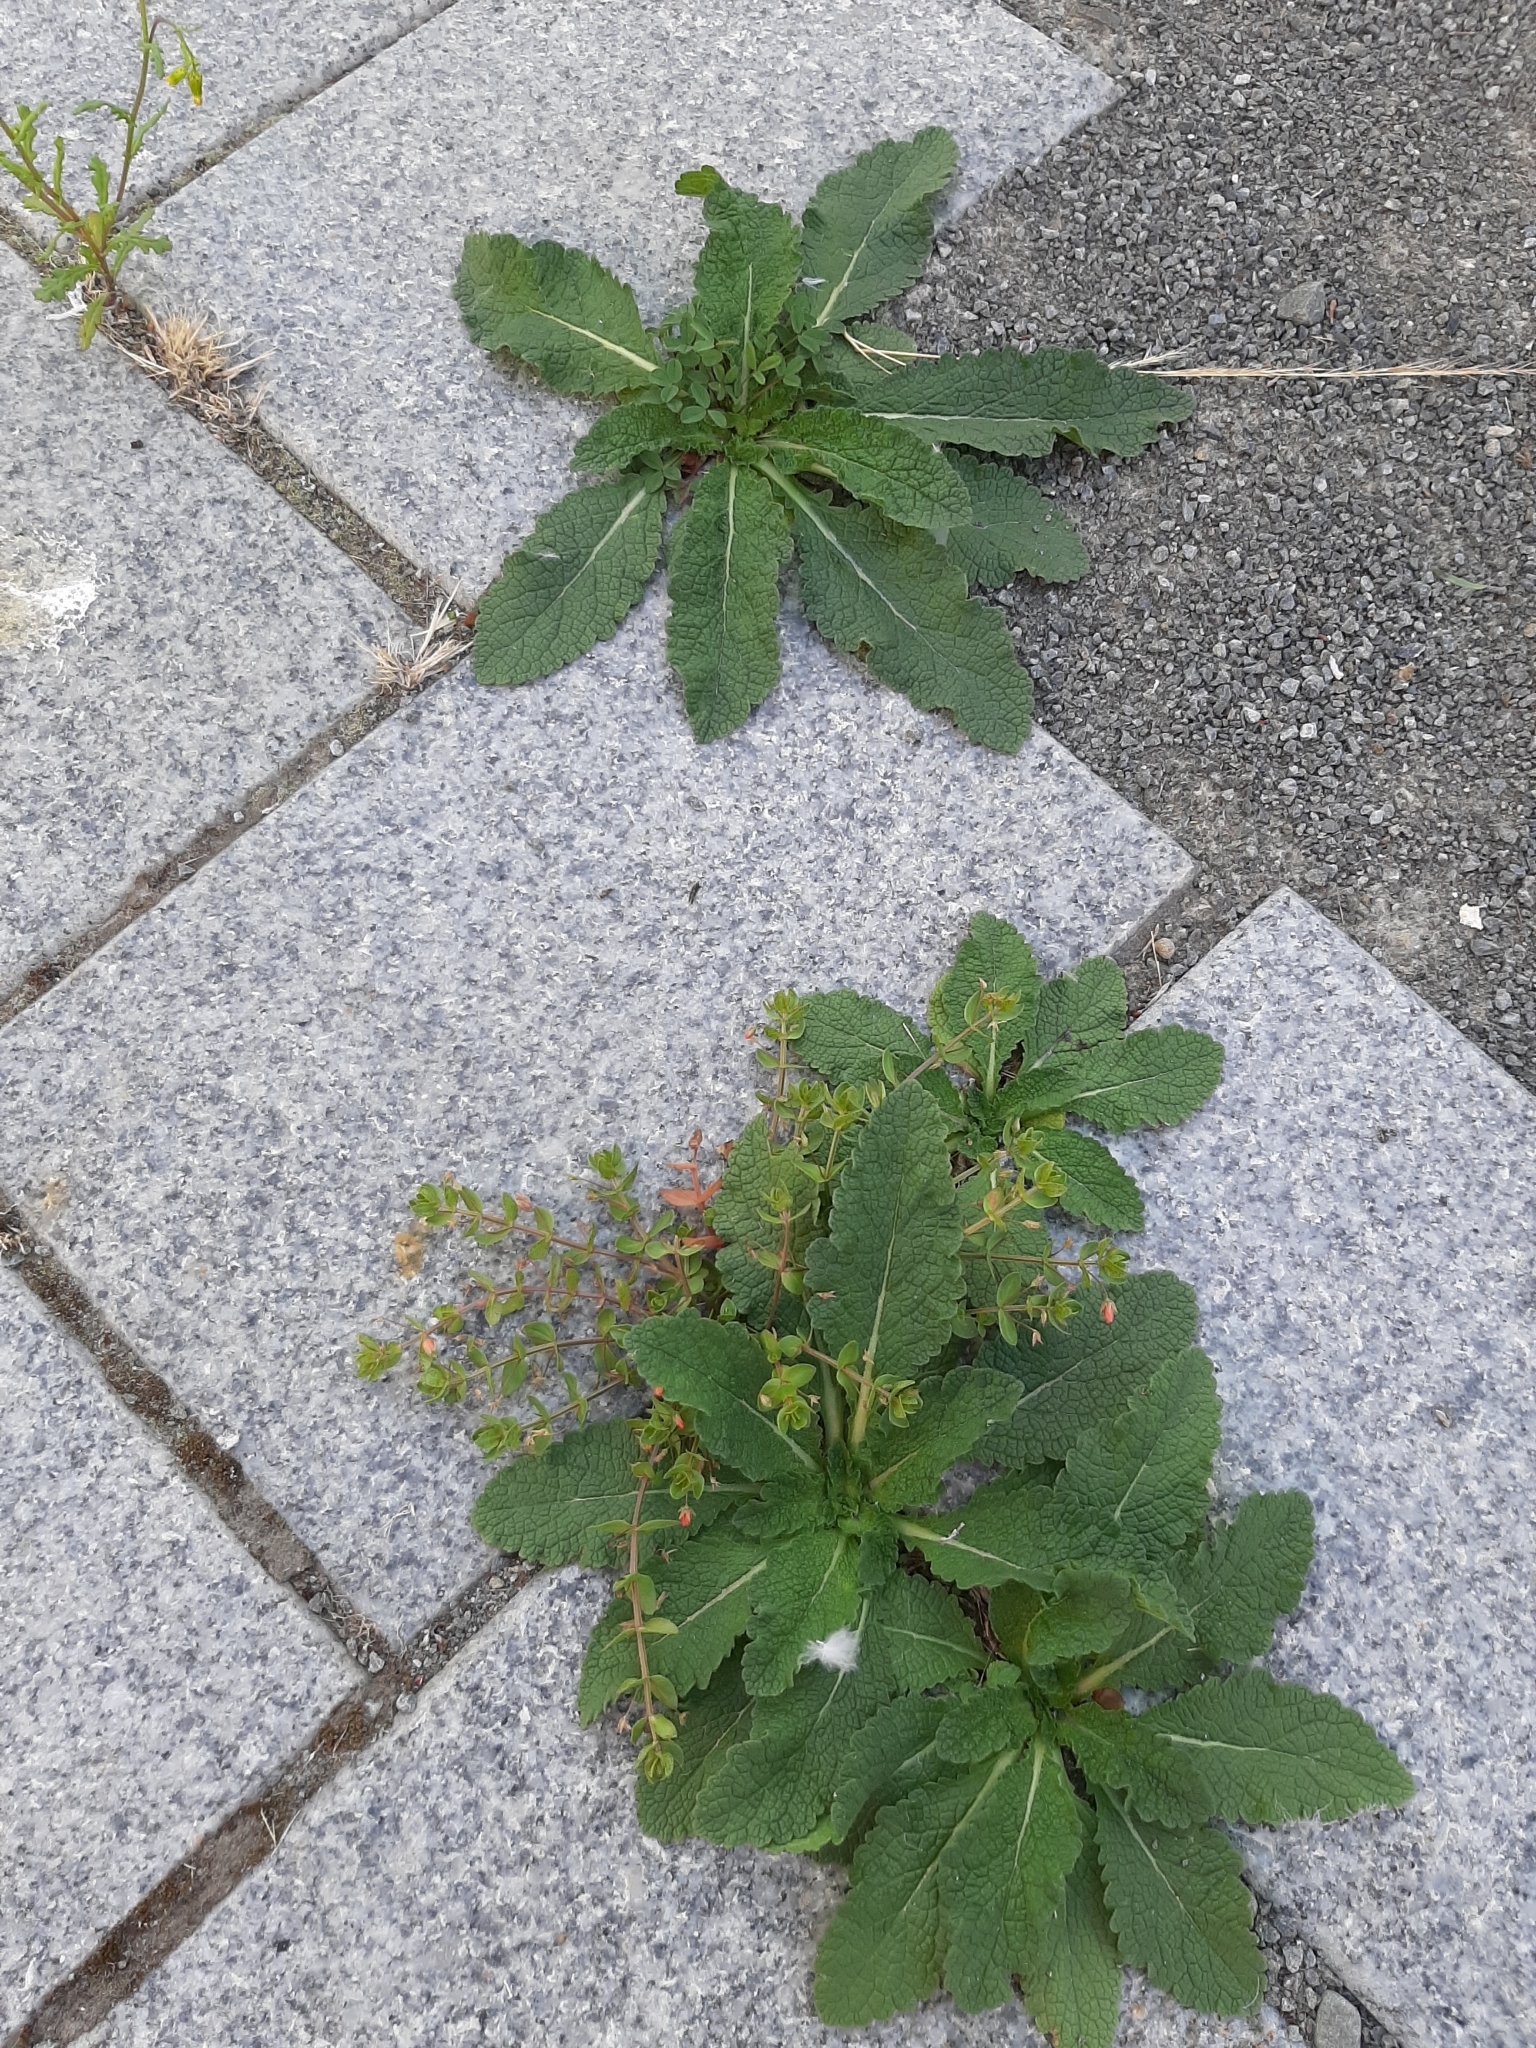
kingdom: Plantae
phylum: Tracheophyta
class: Magnoliopsida
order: Lamiales
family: Plantaginaceae
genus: Digitalis
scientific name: Digitalis purpurea
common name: Foxglove
